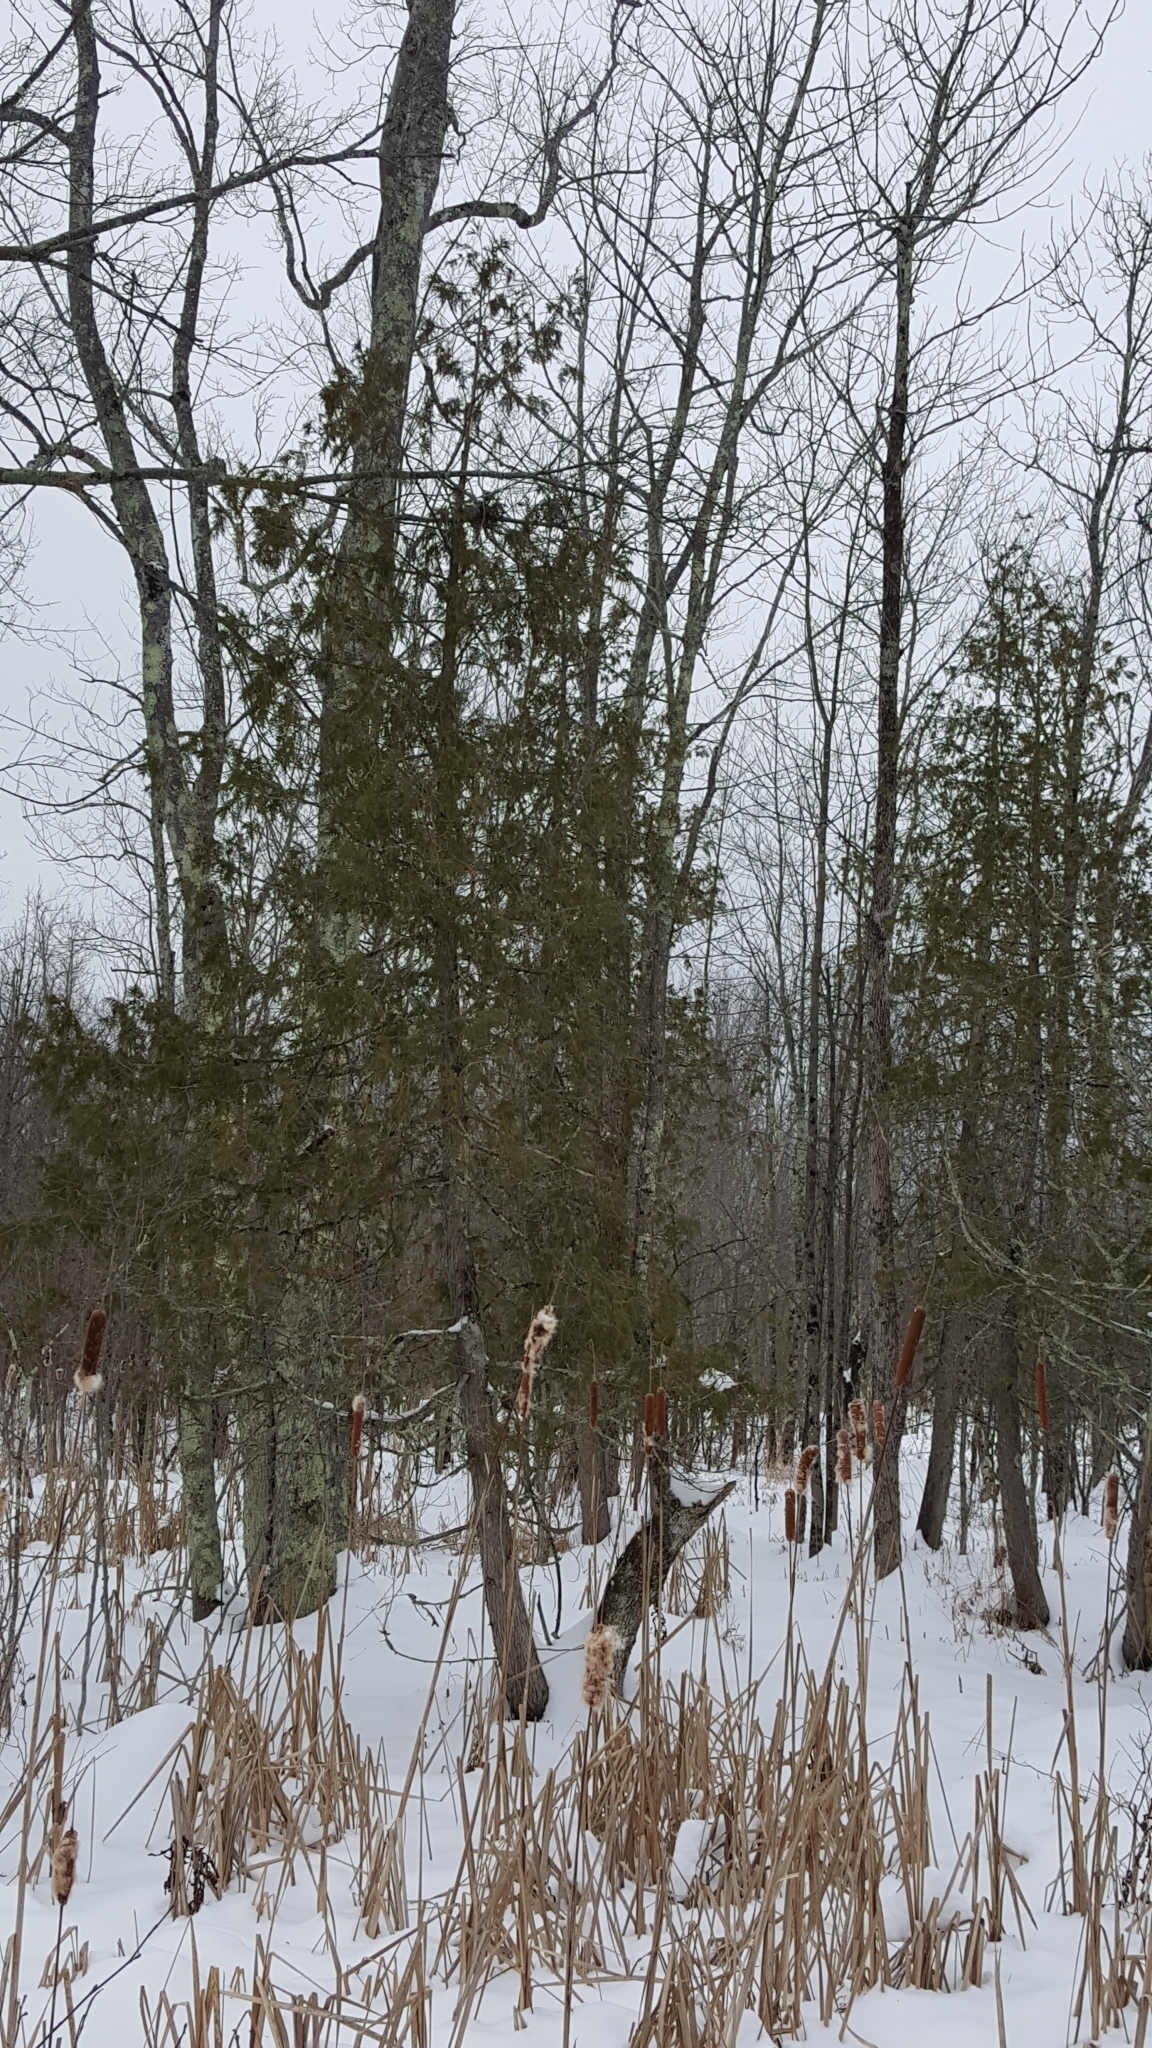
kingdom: Plantae
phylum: Tracheophyta
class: Pinopsida
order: Pinales
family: Cupressaceae
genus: Thuja
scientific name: Thuja occidentalis
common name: Northern white-cedar
